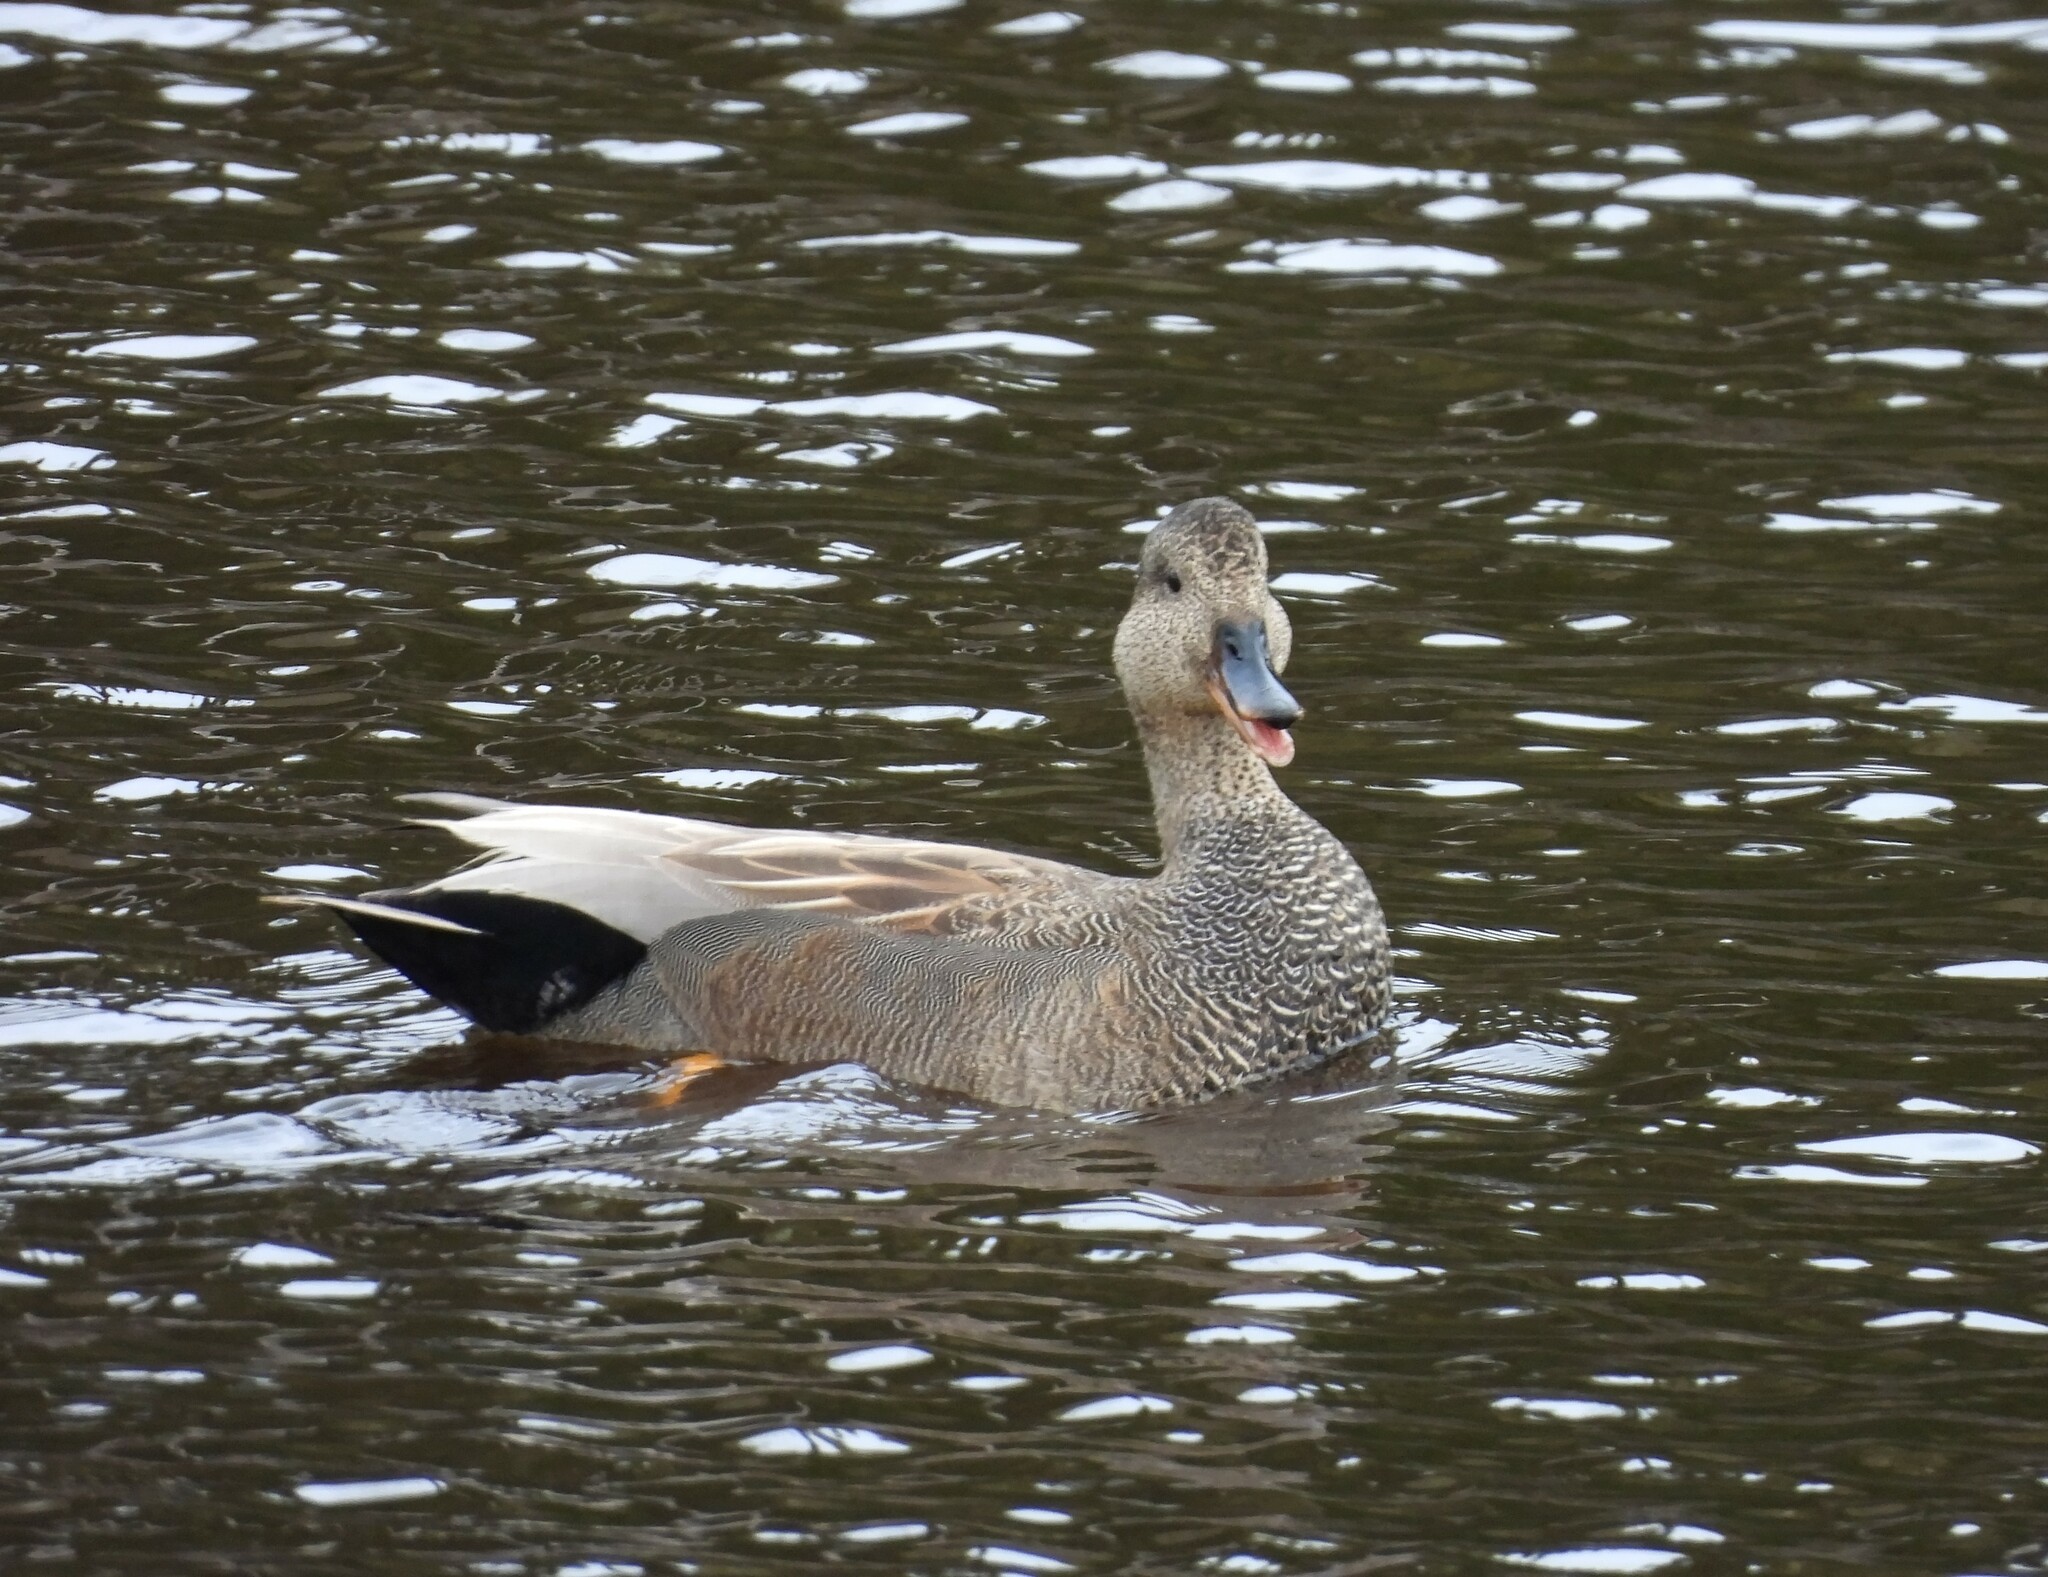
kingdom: Animalia
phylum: Chordata
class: Aves
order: Anseriformes
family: Anatidae
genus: Mareca
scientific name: Mareca strepera
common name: Gadwall
